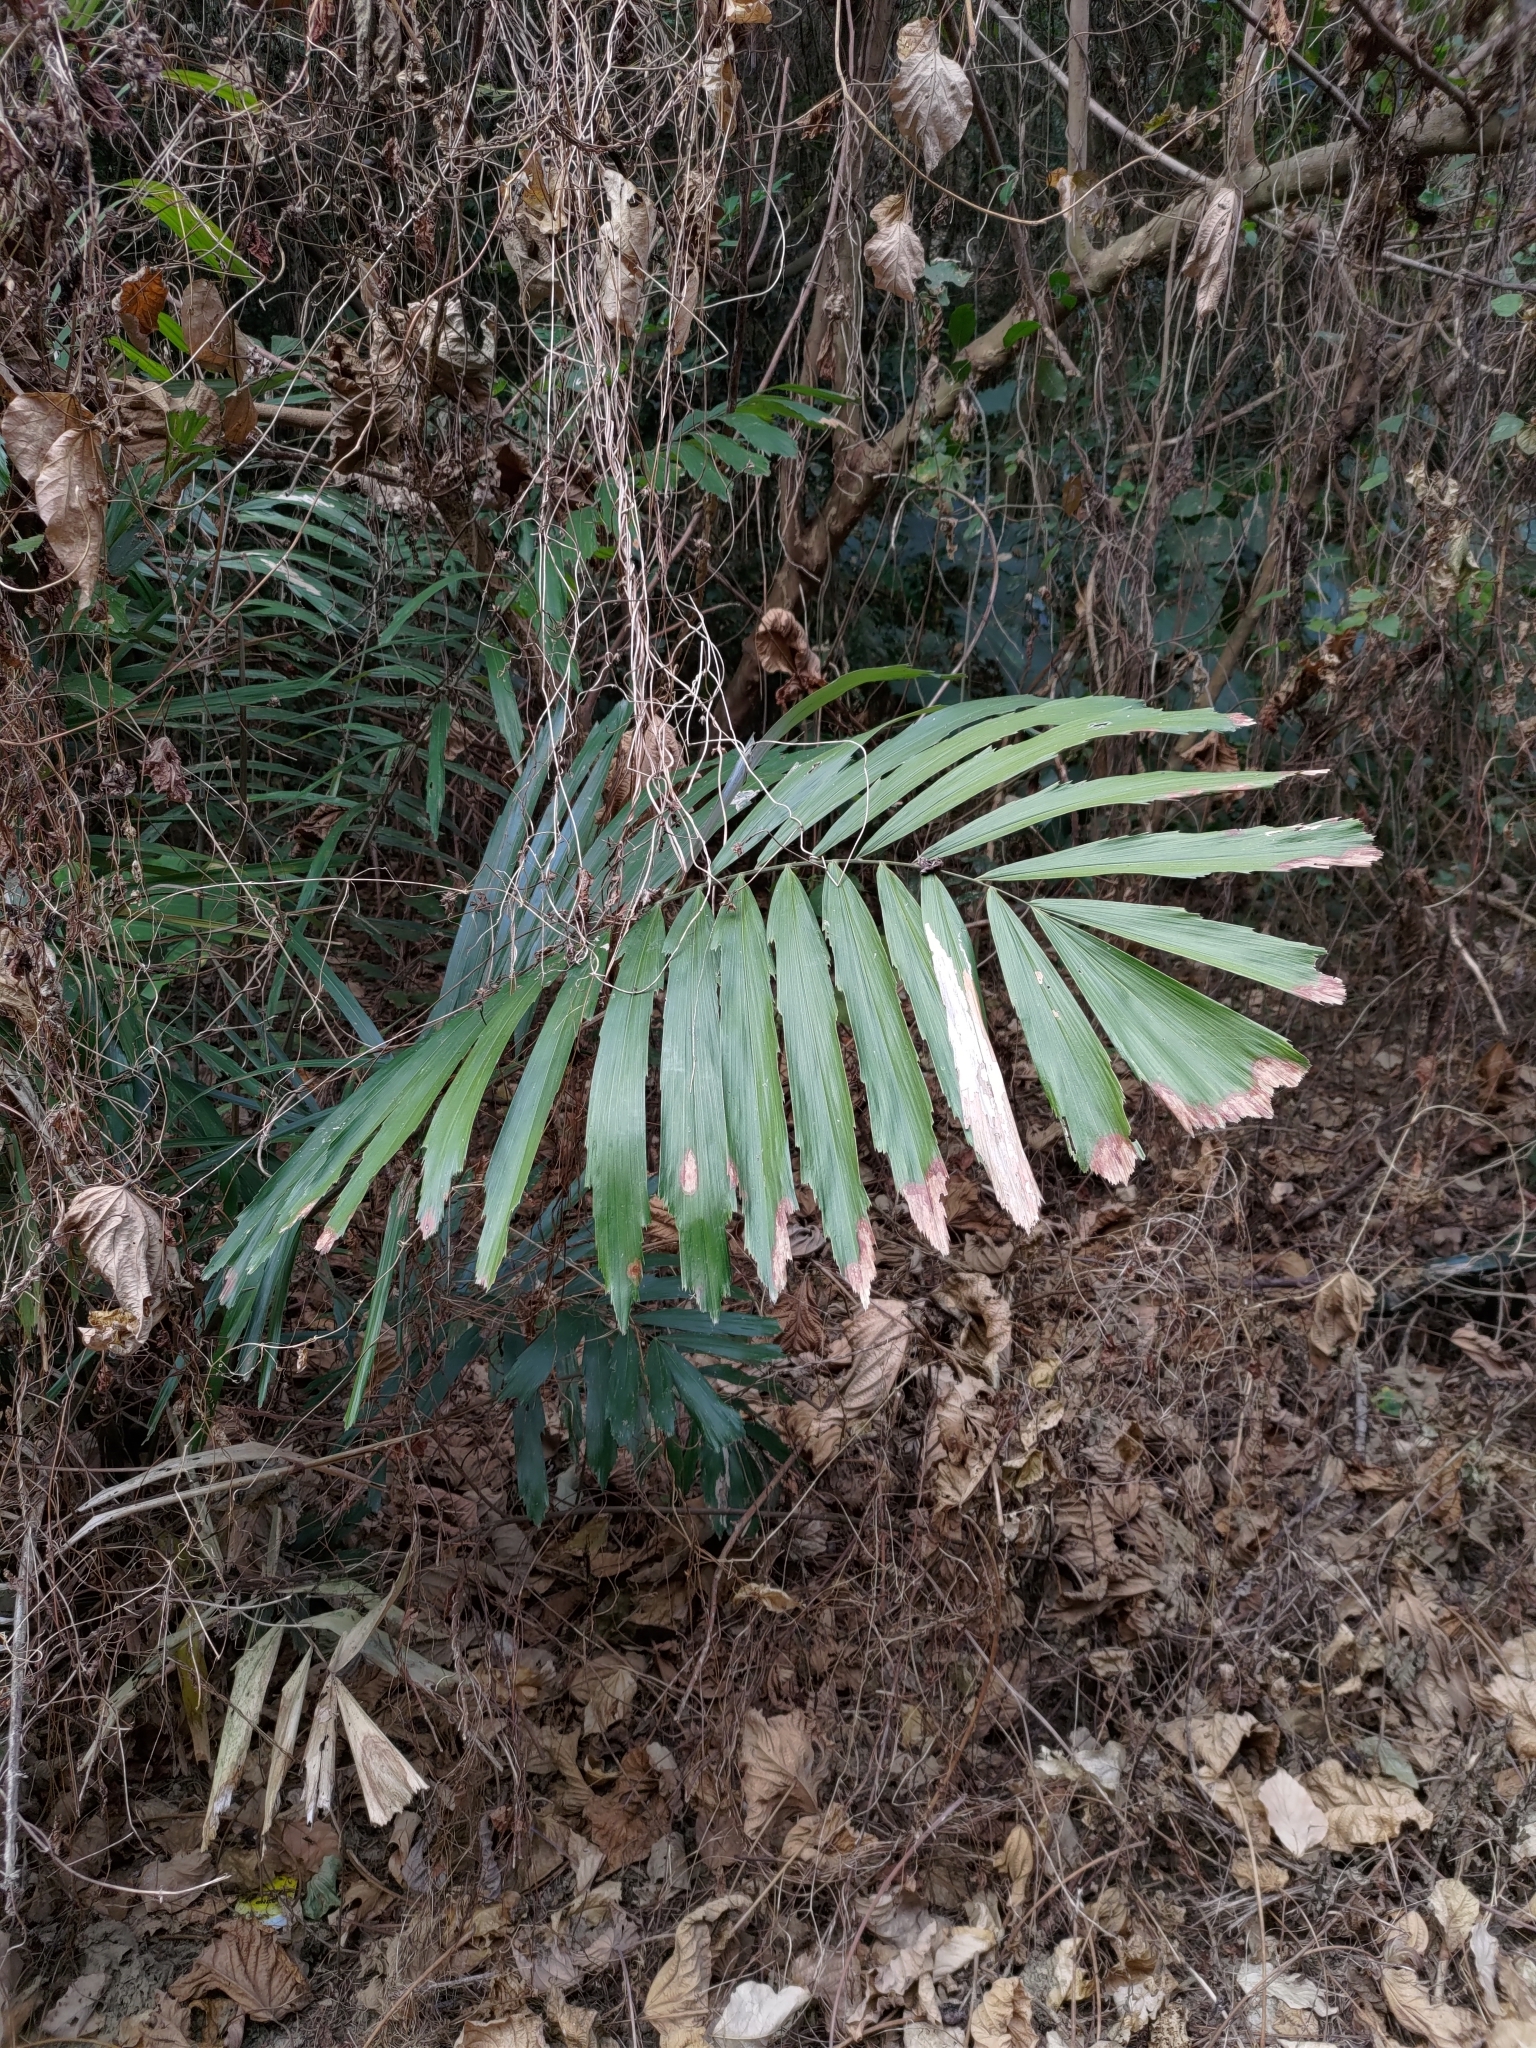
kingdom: Plantae
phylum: Tracheophyta
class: Liliopsida
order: Arecales
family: Arecaceae
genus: Arenga
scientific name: Arenga engleri
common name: Formosan sugar palm
